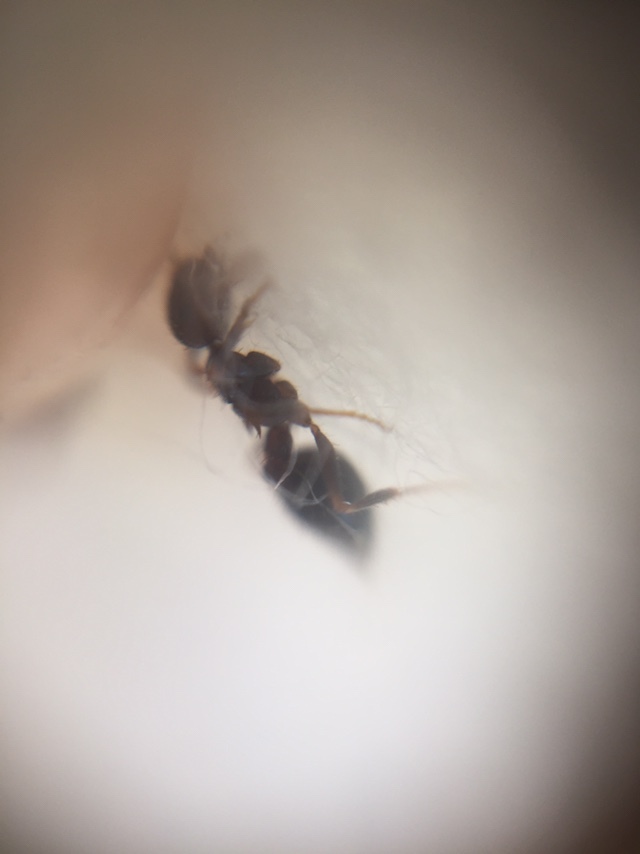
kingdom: Animalia
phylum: Arthropoda
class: Insecta
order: Hymenoptera
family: Formicidae
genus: Crematogaster
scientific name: Crematogaster rothneyi
